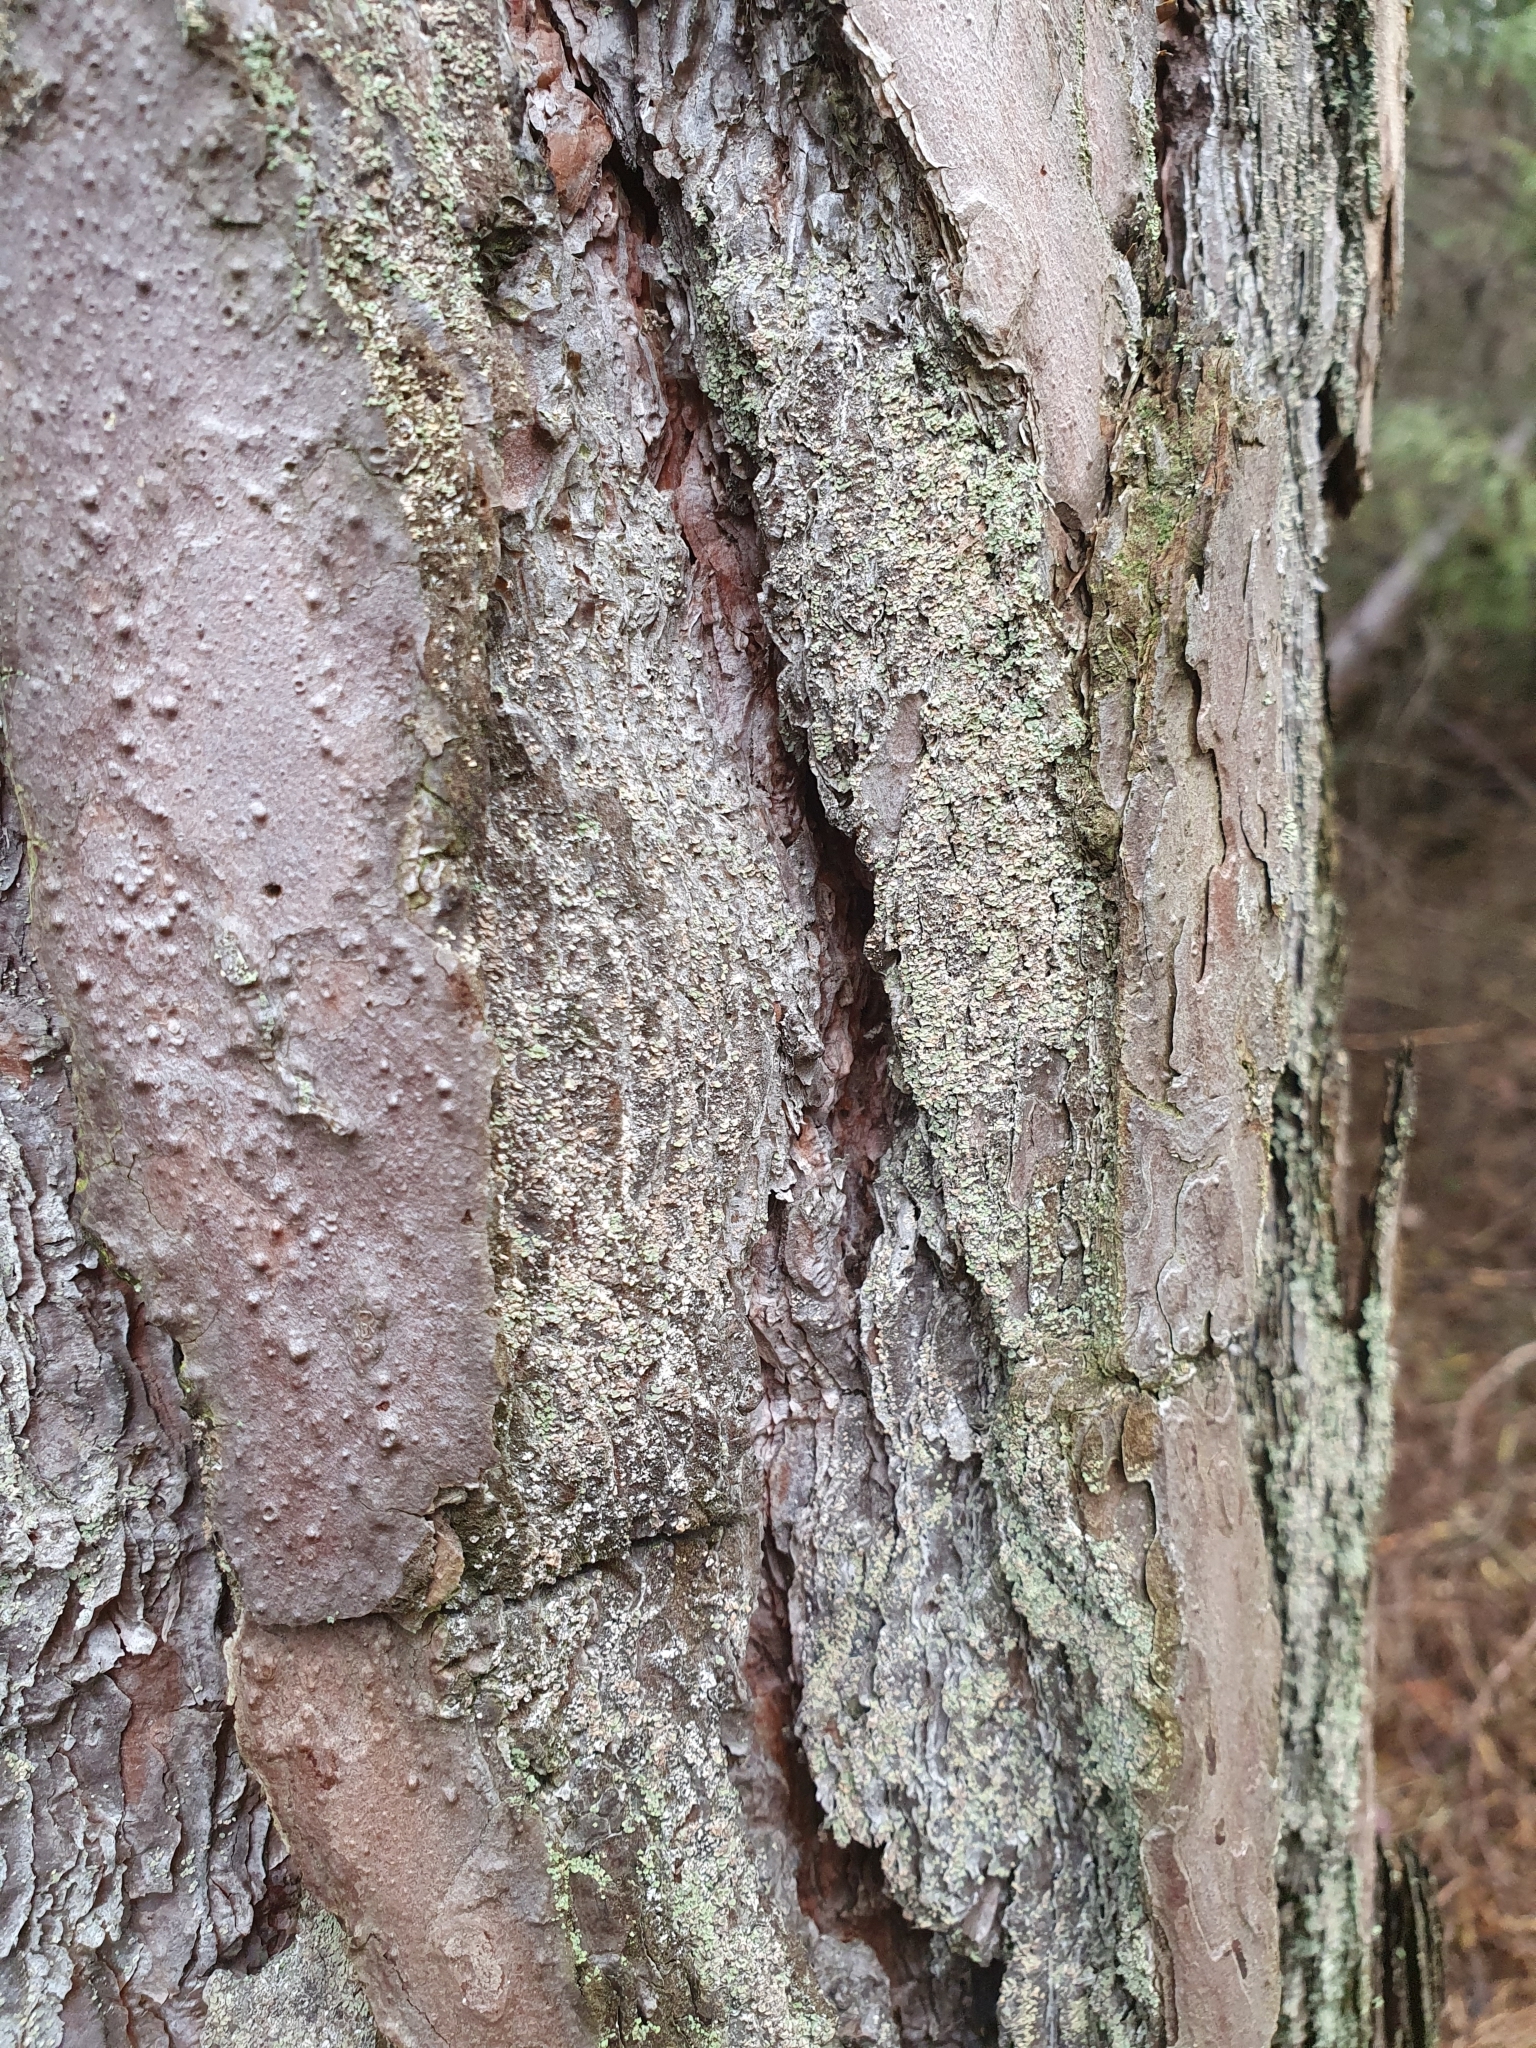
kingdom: Fungi
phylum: Ascomycota
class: Lecanoromycetes
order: Umbilicariales
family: Ophioparmaceae
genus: Hypocenomyce
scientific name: Hypocenomyce scalaris
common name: Common clam lichen
